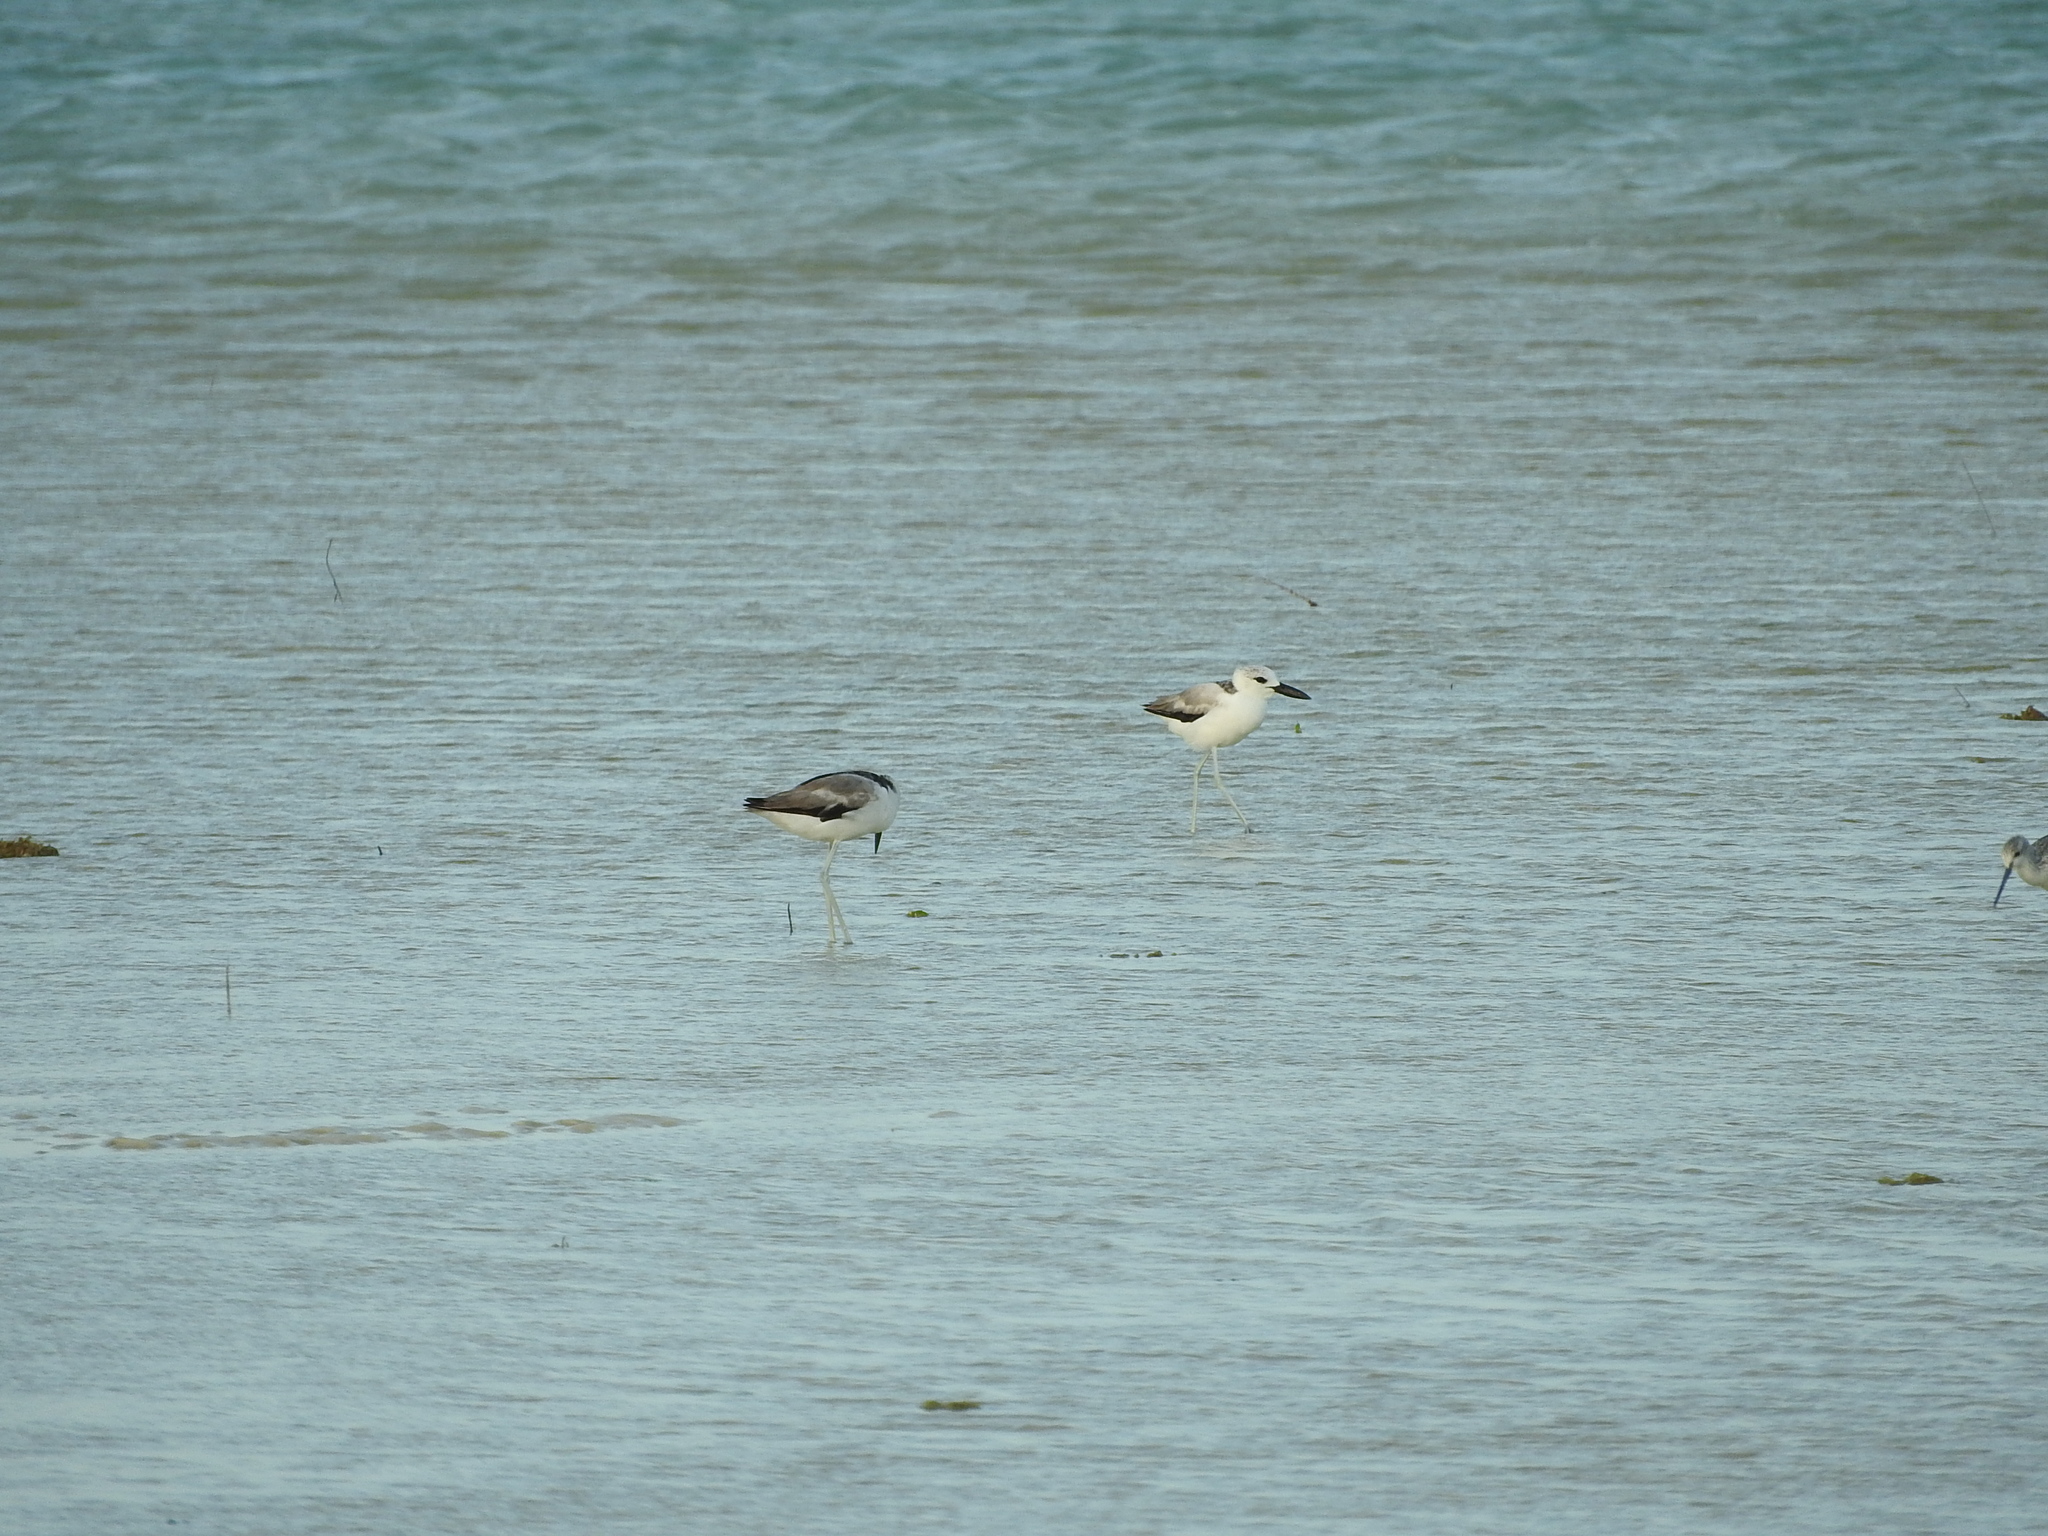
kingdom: Animalia
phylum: Chordata
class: Aves
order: Charadriiformes
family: Dromadidae
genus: Dromas
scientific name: Dromas ardeola
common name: Crab-plover
